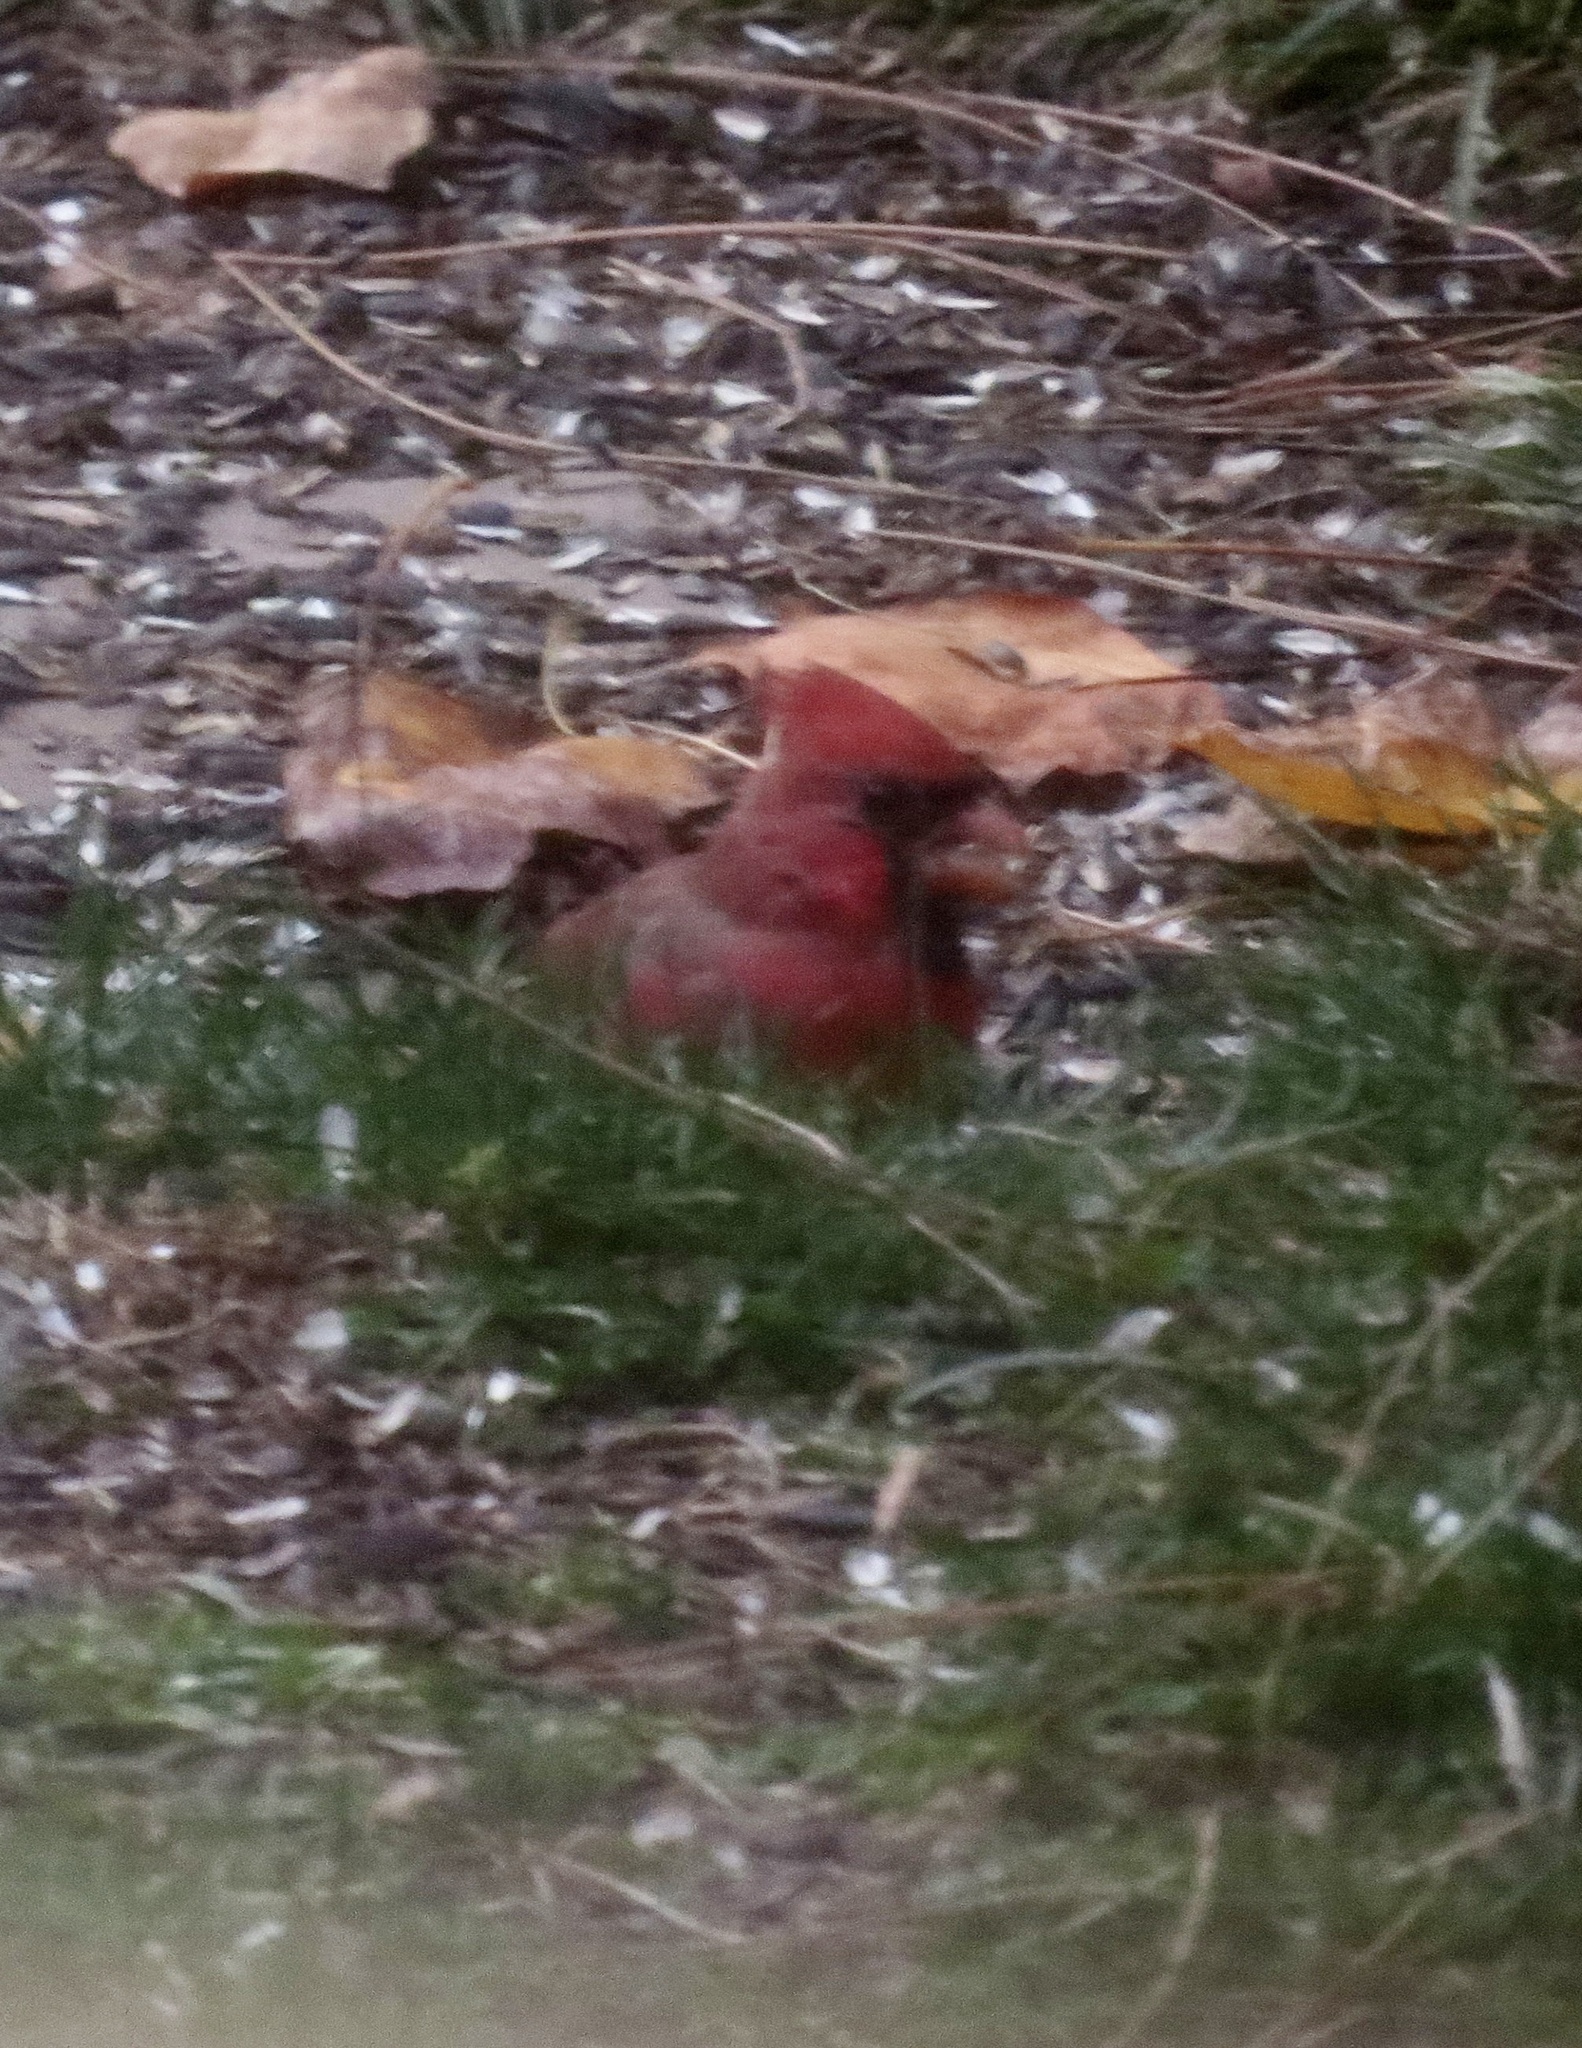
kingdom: Animalia
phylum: Chordata
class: Aves
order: Passeriformes
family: Cardinalidae
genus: Cardinalis
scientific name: Cardinalis cardinalis
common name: Northern cardinal
